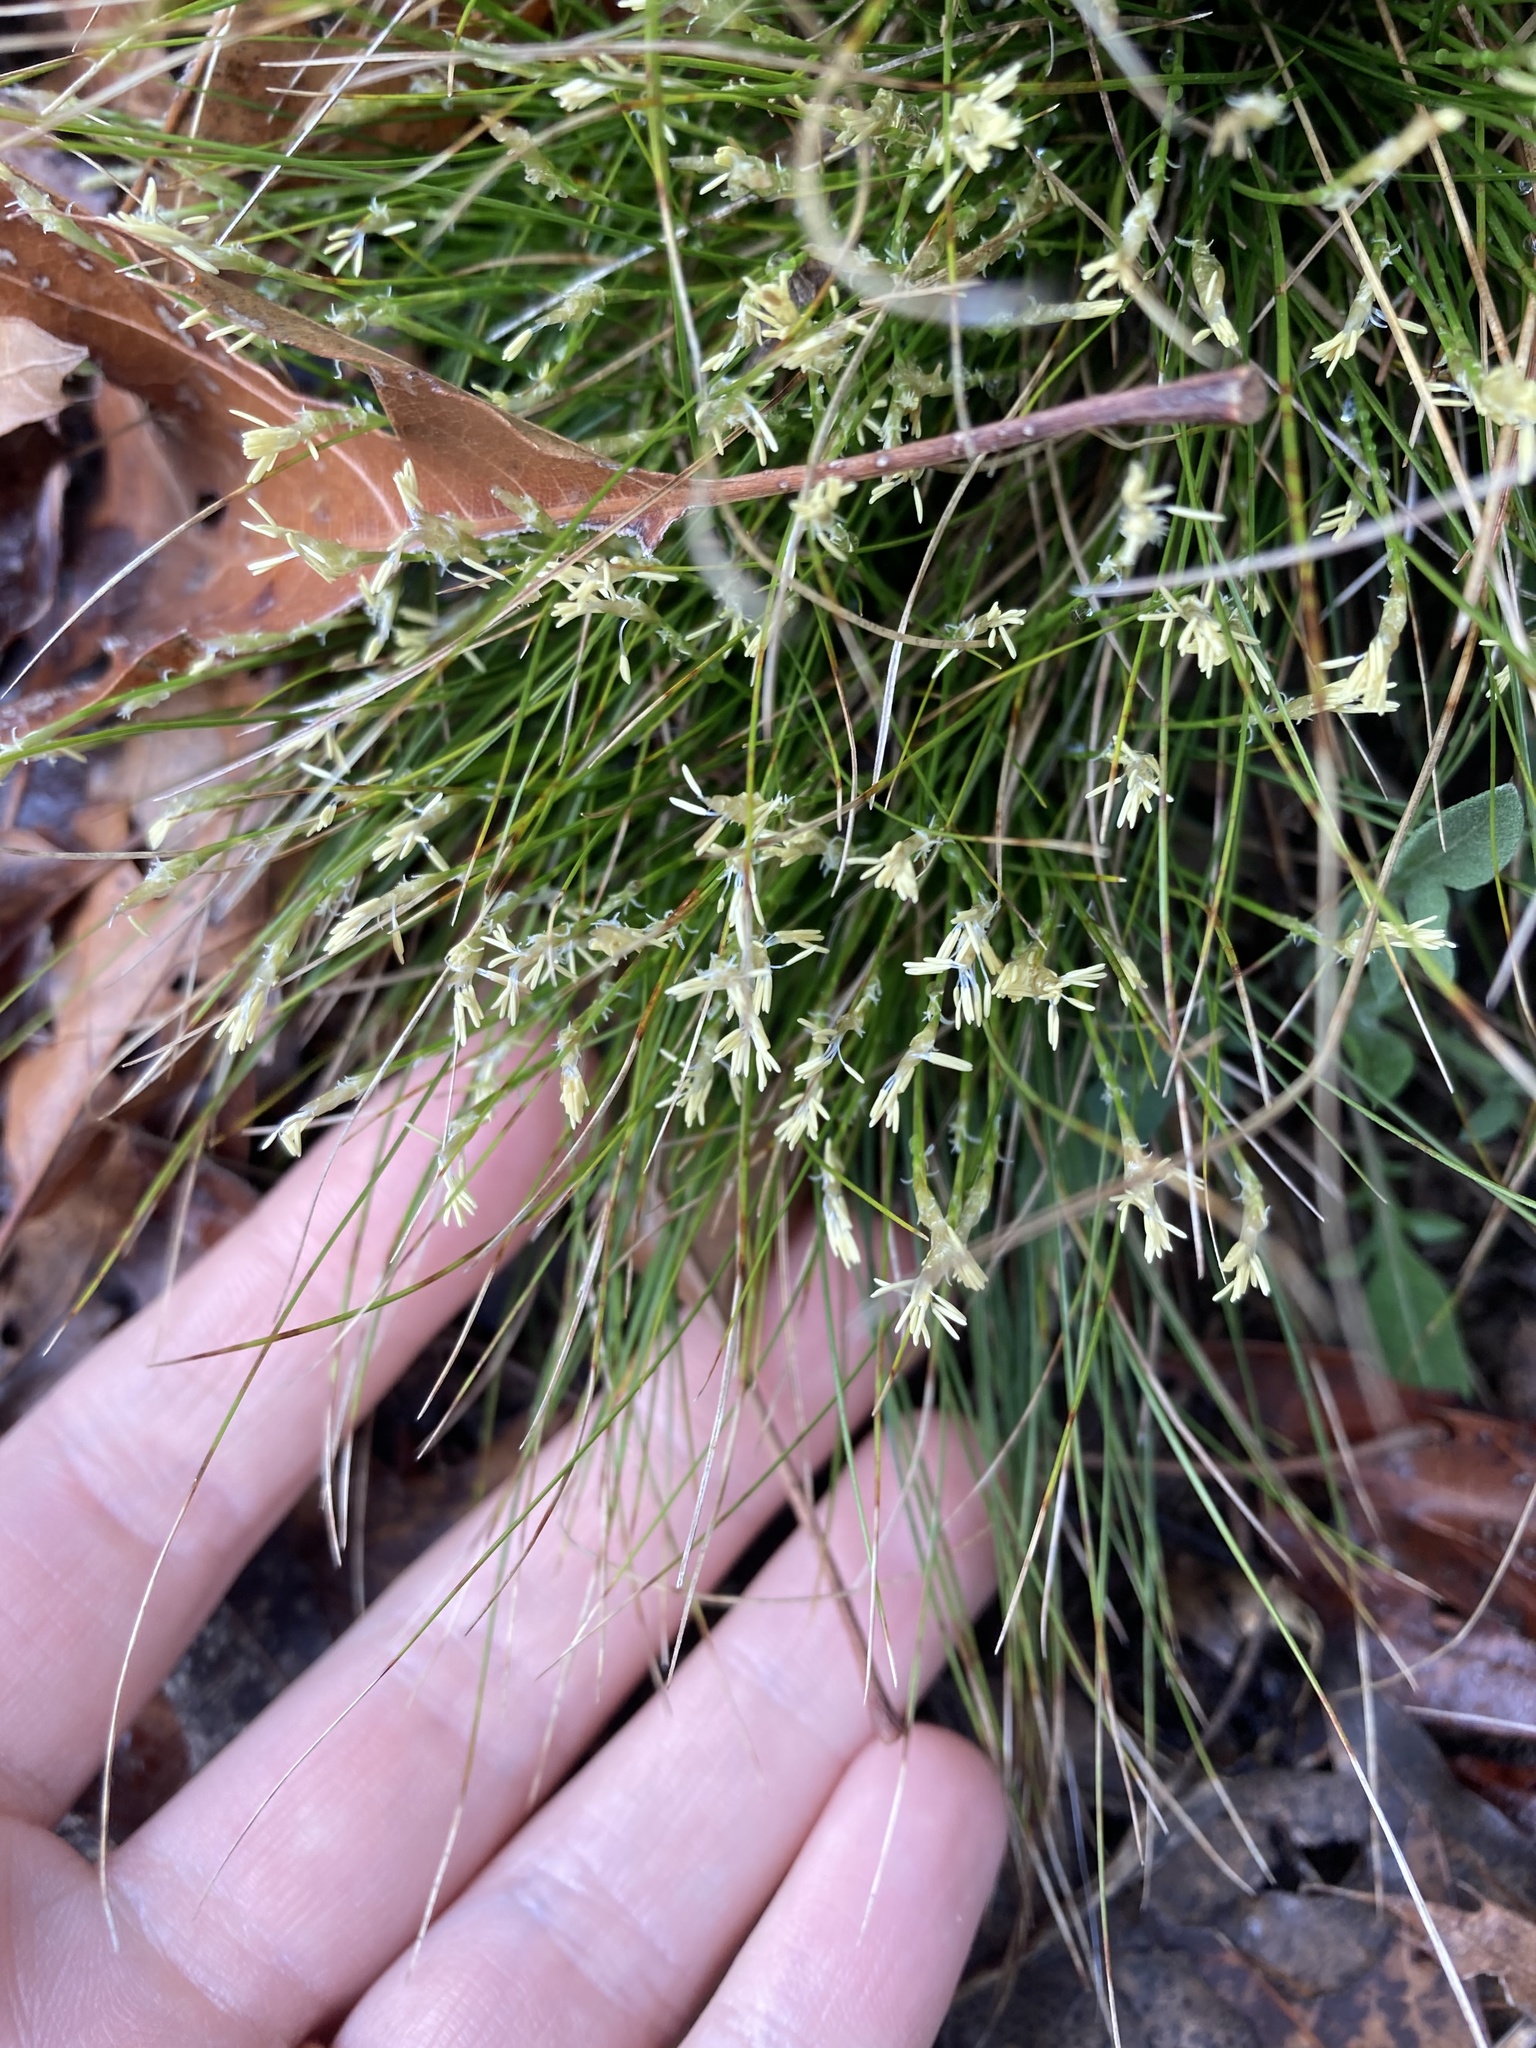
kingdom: Plantae
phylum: Tracheophyta
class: Liliopsida
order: Poales
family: Cyperaceae
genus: Carex
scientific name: Carex eburnea
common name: Bristle-leaved sedge
